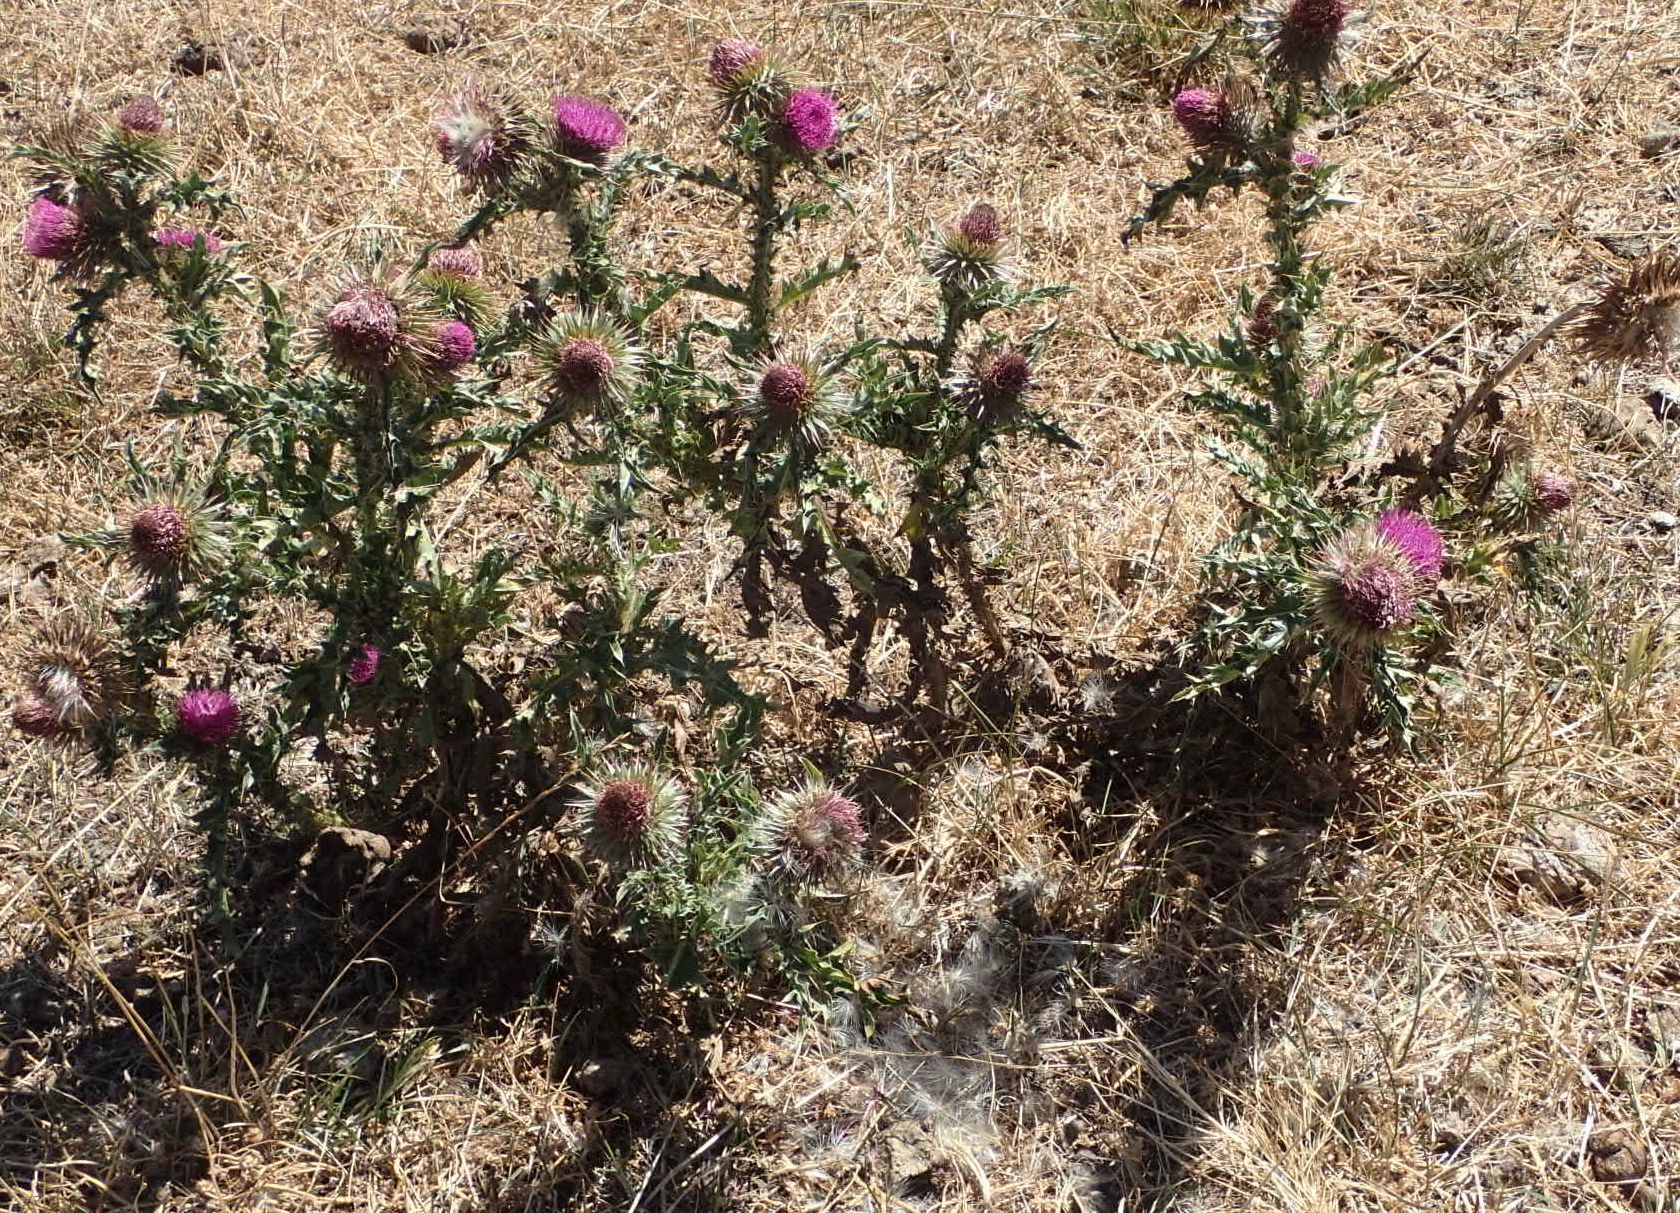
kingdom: Plantae
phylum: Tracheophyta
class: Magnoliopsida
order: Asterales
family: Asteraceae
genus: Carduus
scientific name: Carduus nutans
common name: Musk thistle
